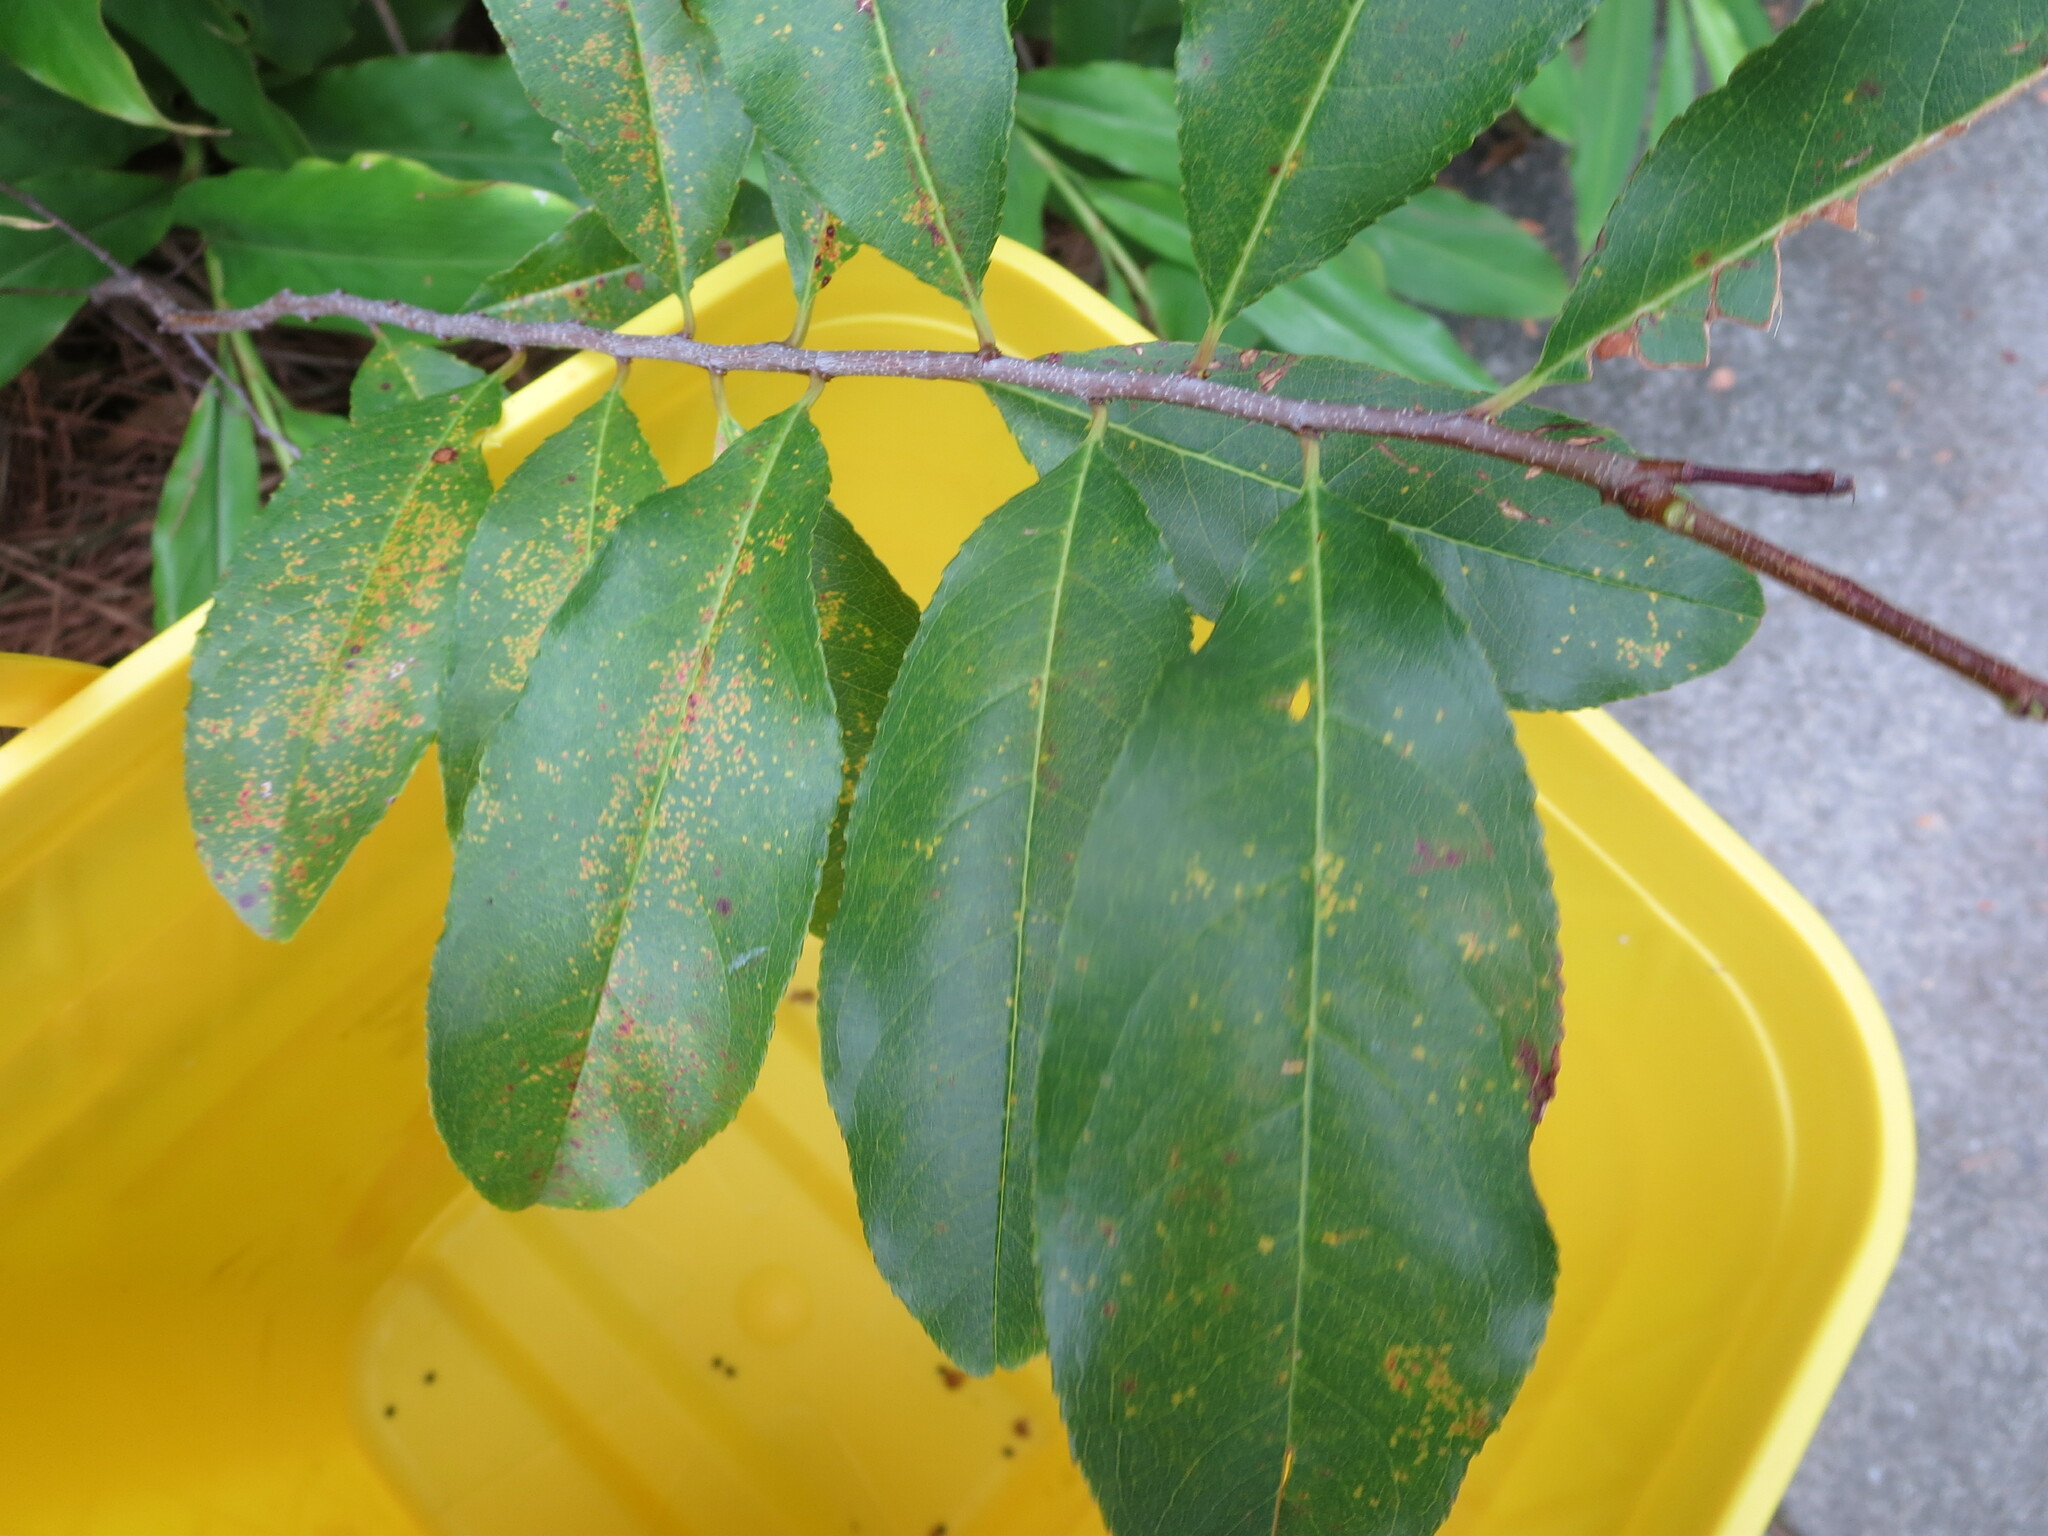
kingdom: Plantae
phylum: Tracheophyta
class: Magnoliopsida
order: Rosales
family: Rosaceae
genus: Prunus
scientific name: Prunus caroliniana
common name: Carolina laurel cherry
